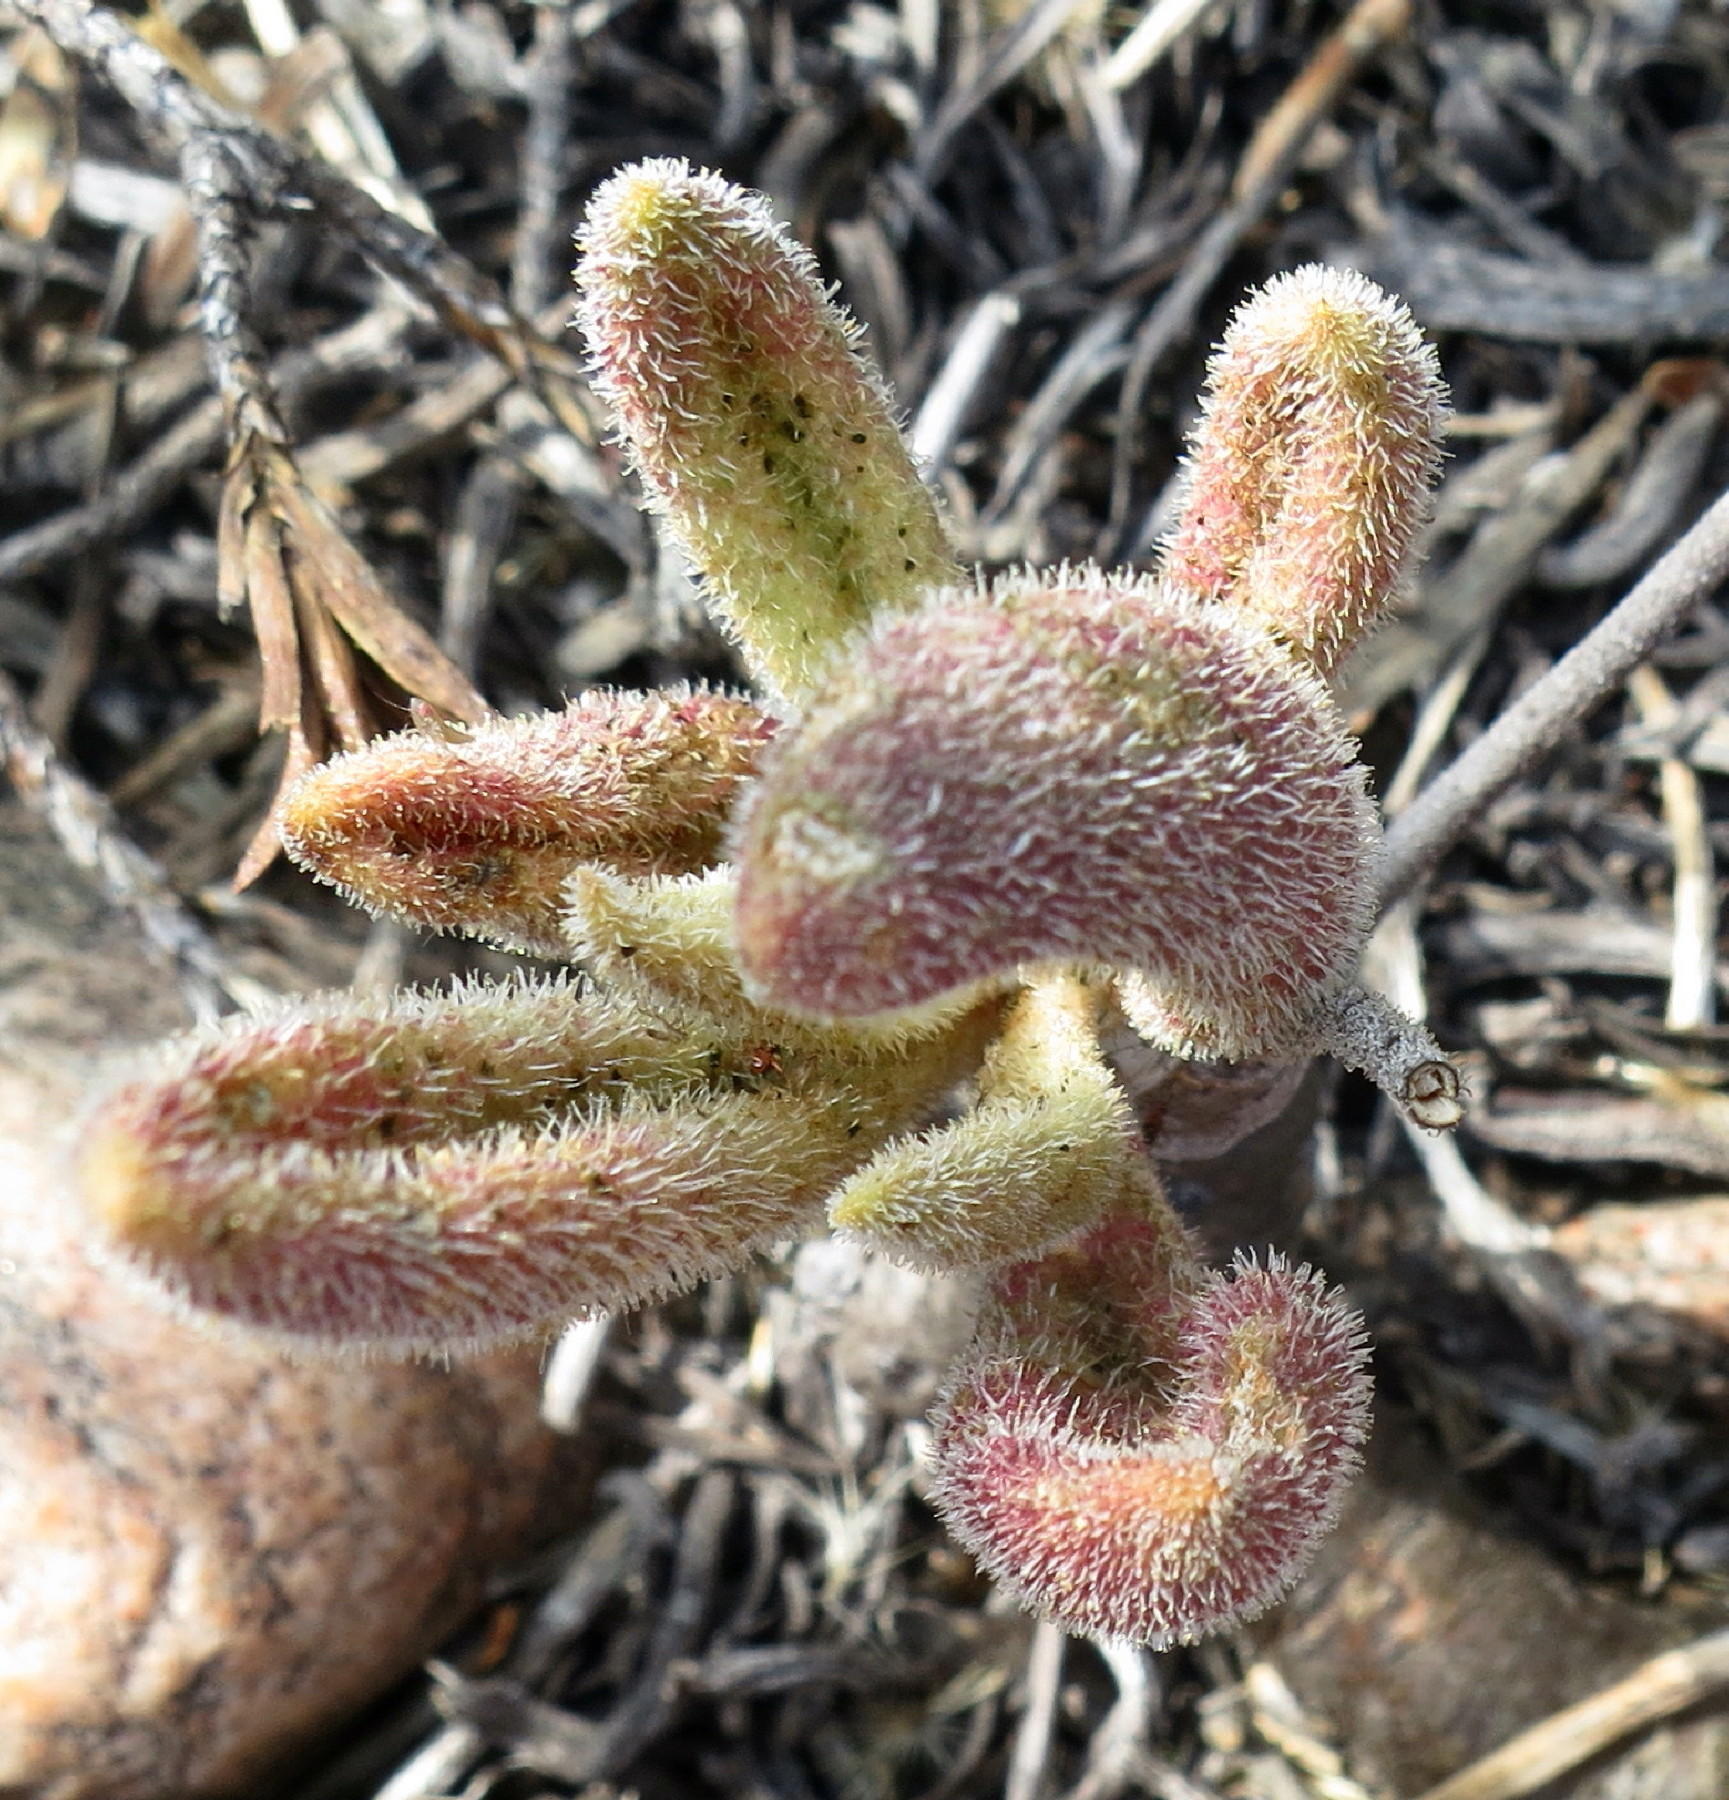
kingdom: Plantae
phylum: Tracheophyta
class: Magnoliopsida
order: Saxifragales
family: Crassulaceae
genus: Tylecodon
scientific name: Tylecodon leucothrix
